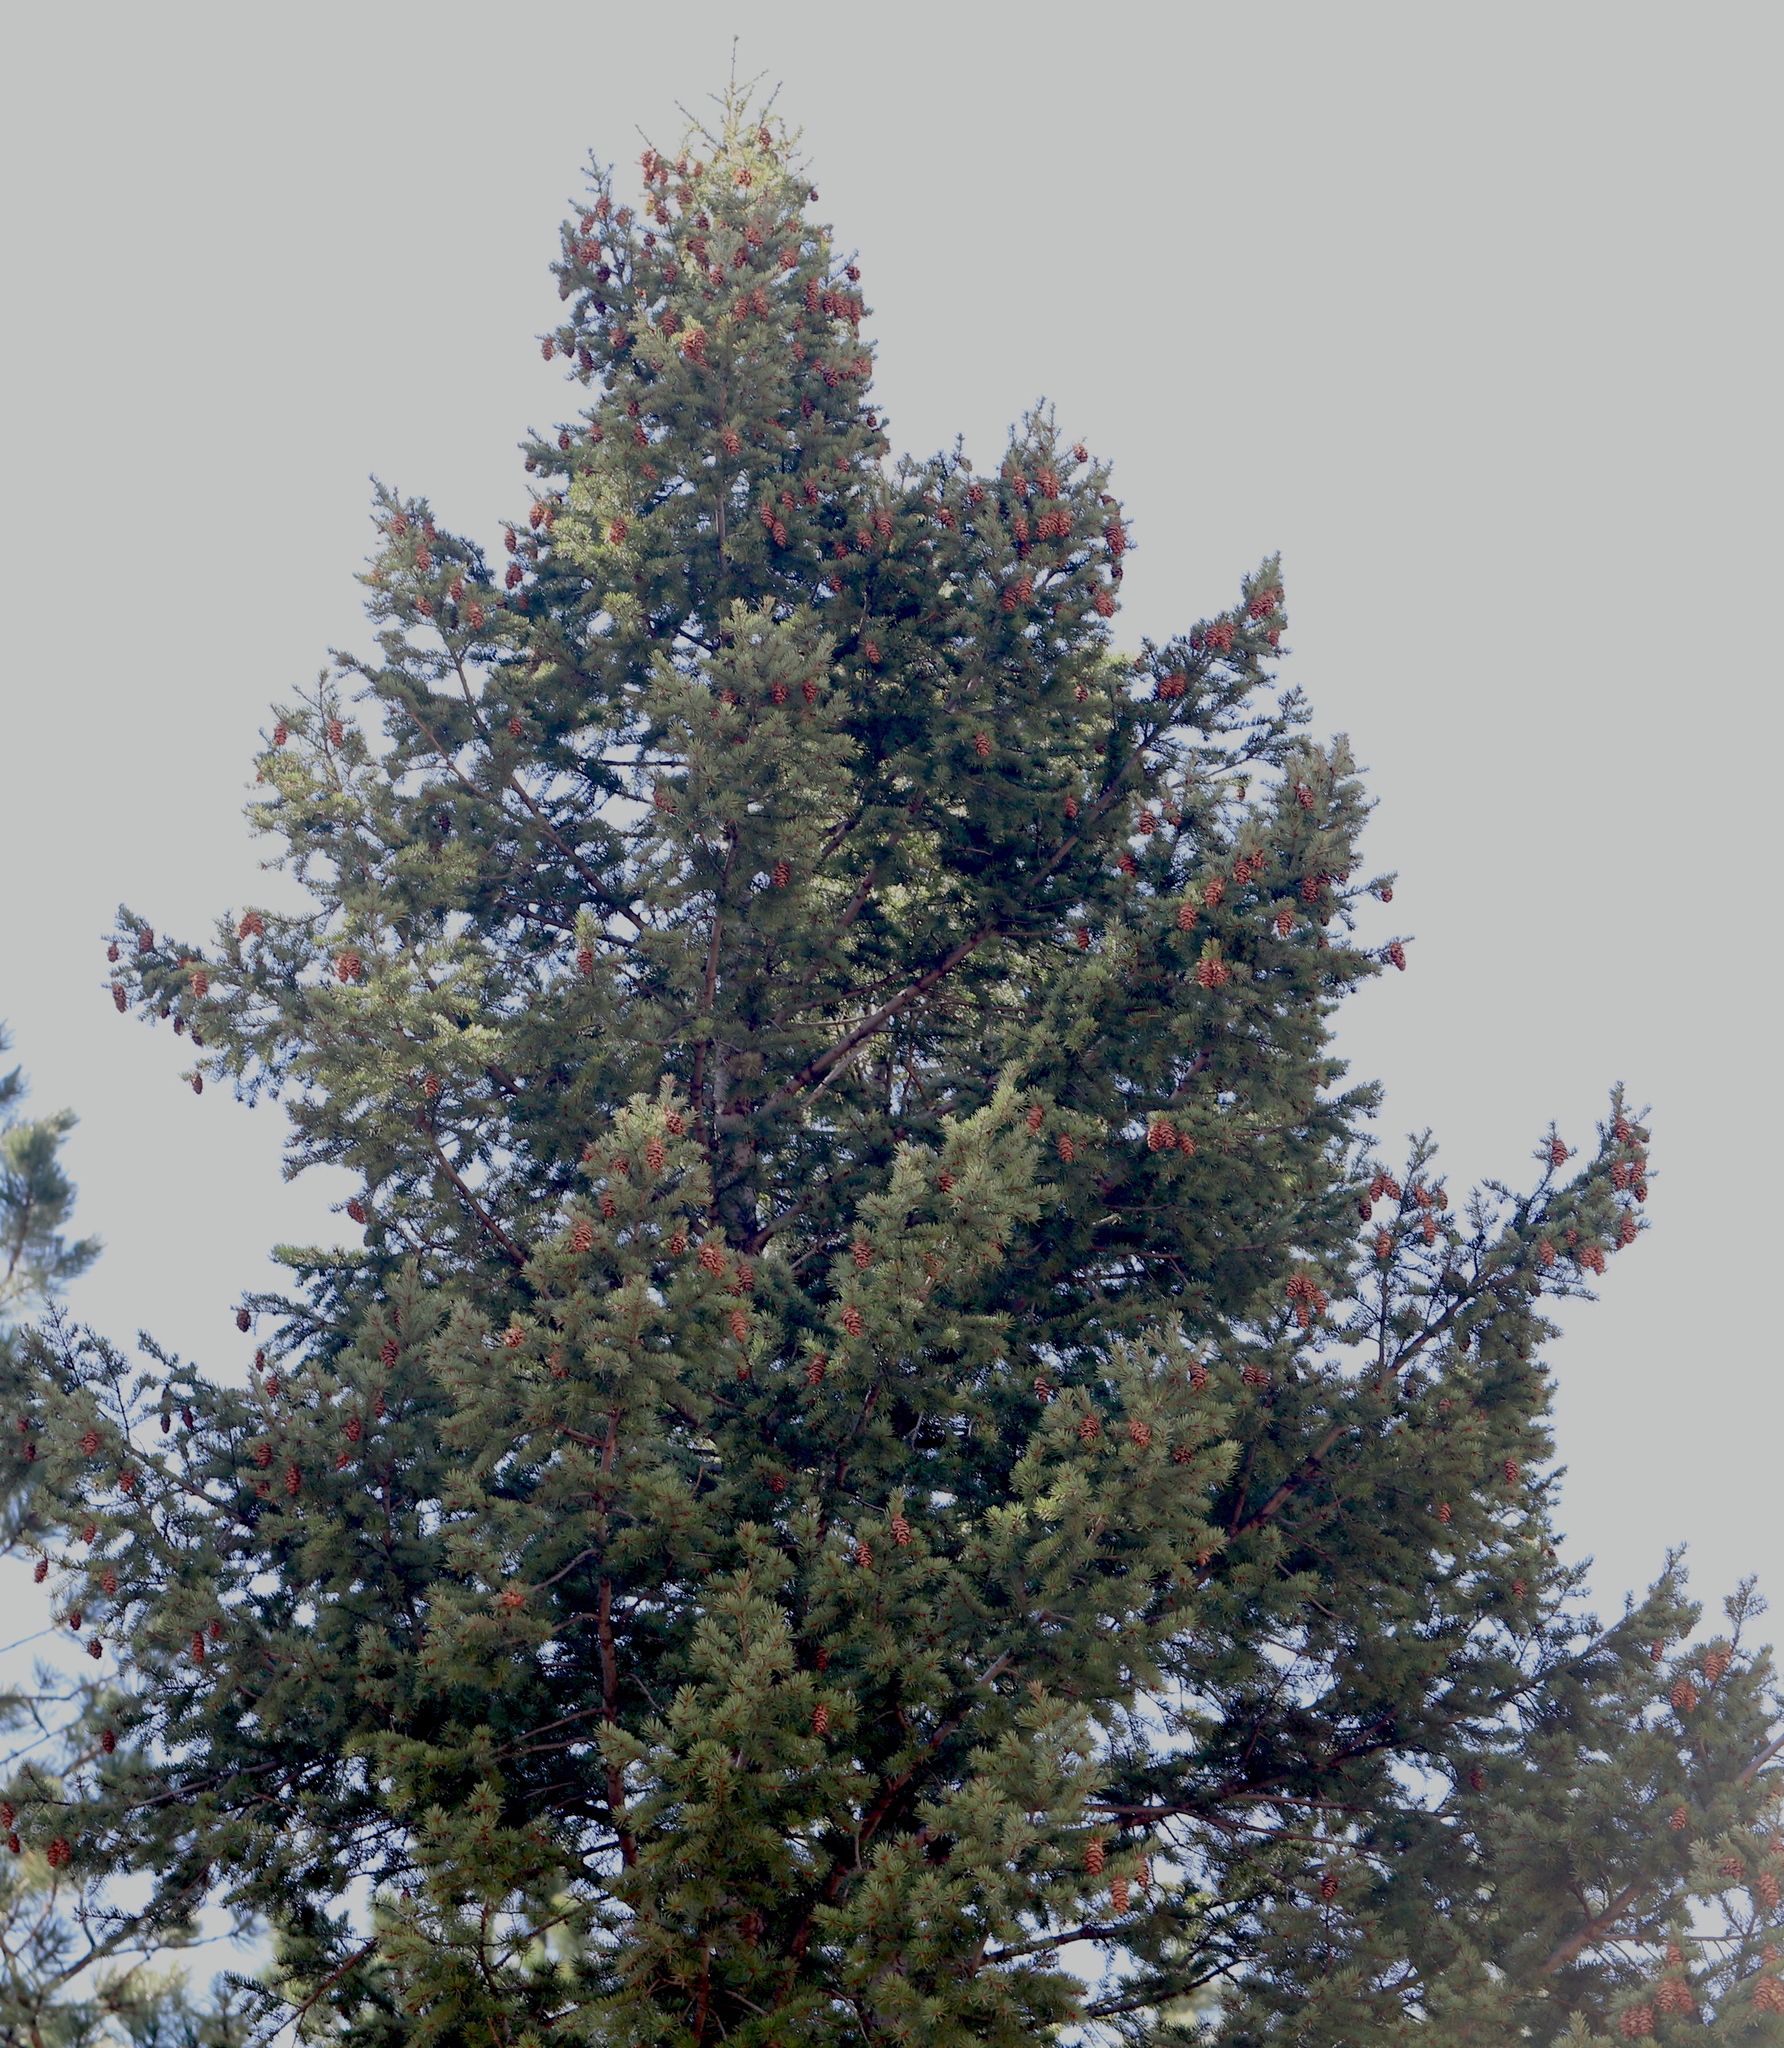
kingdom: Plantae
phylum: Tracheophyta
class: Pinopsida
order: Pinales
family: Pinaceae
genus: Pseudotsuga
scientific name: Pseudotsuga menziesii
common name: Douglas fir
